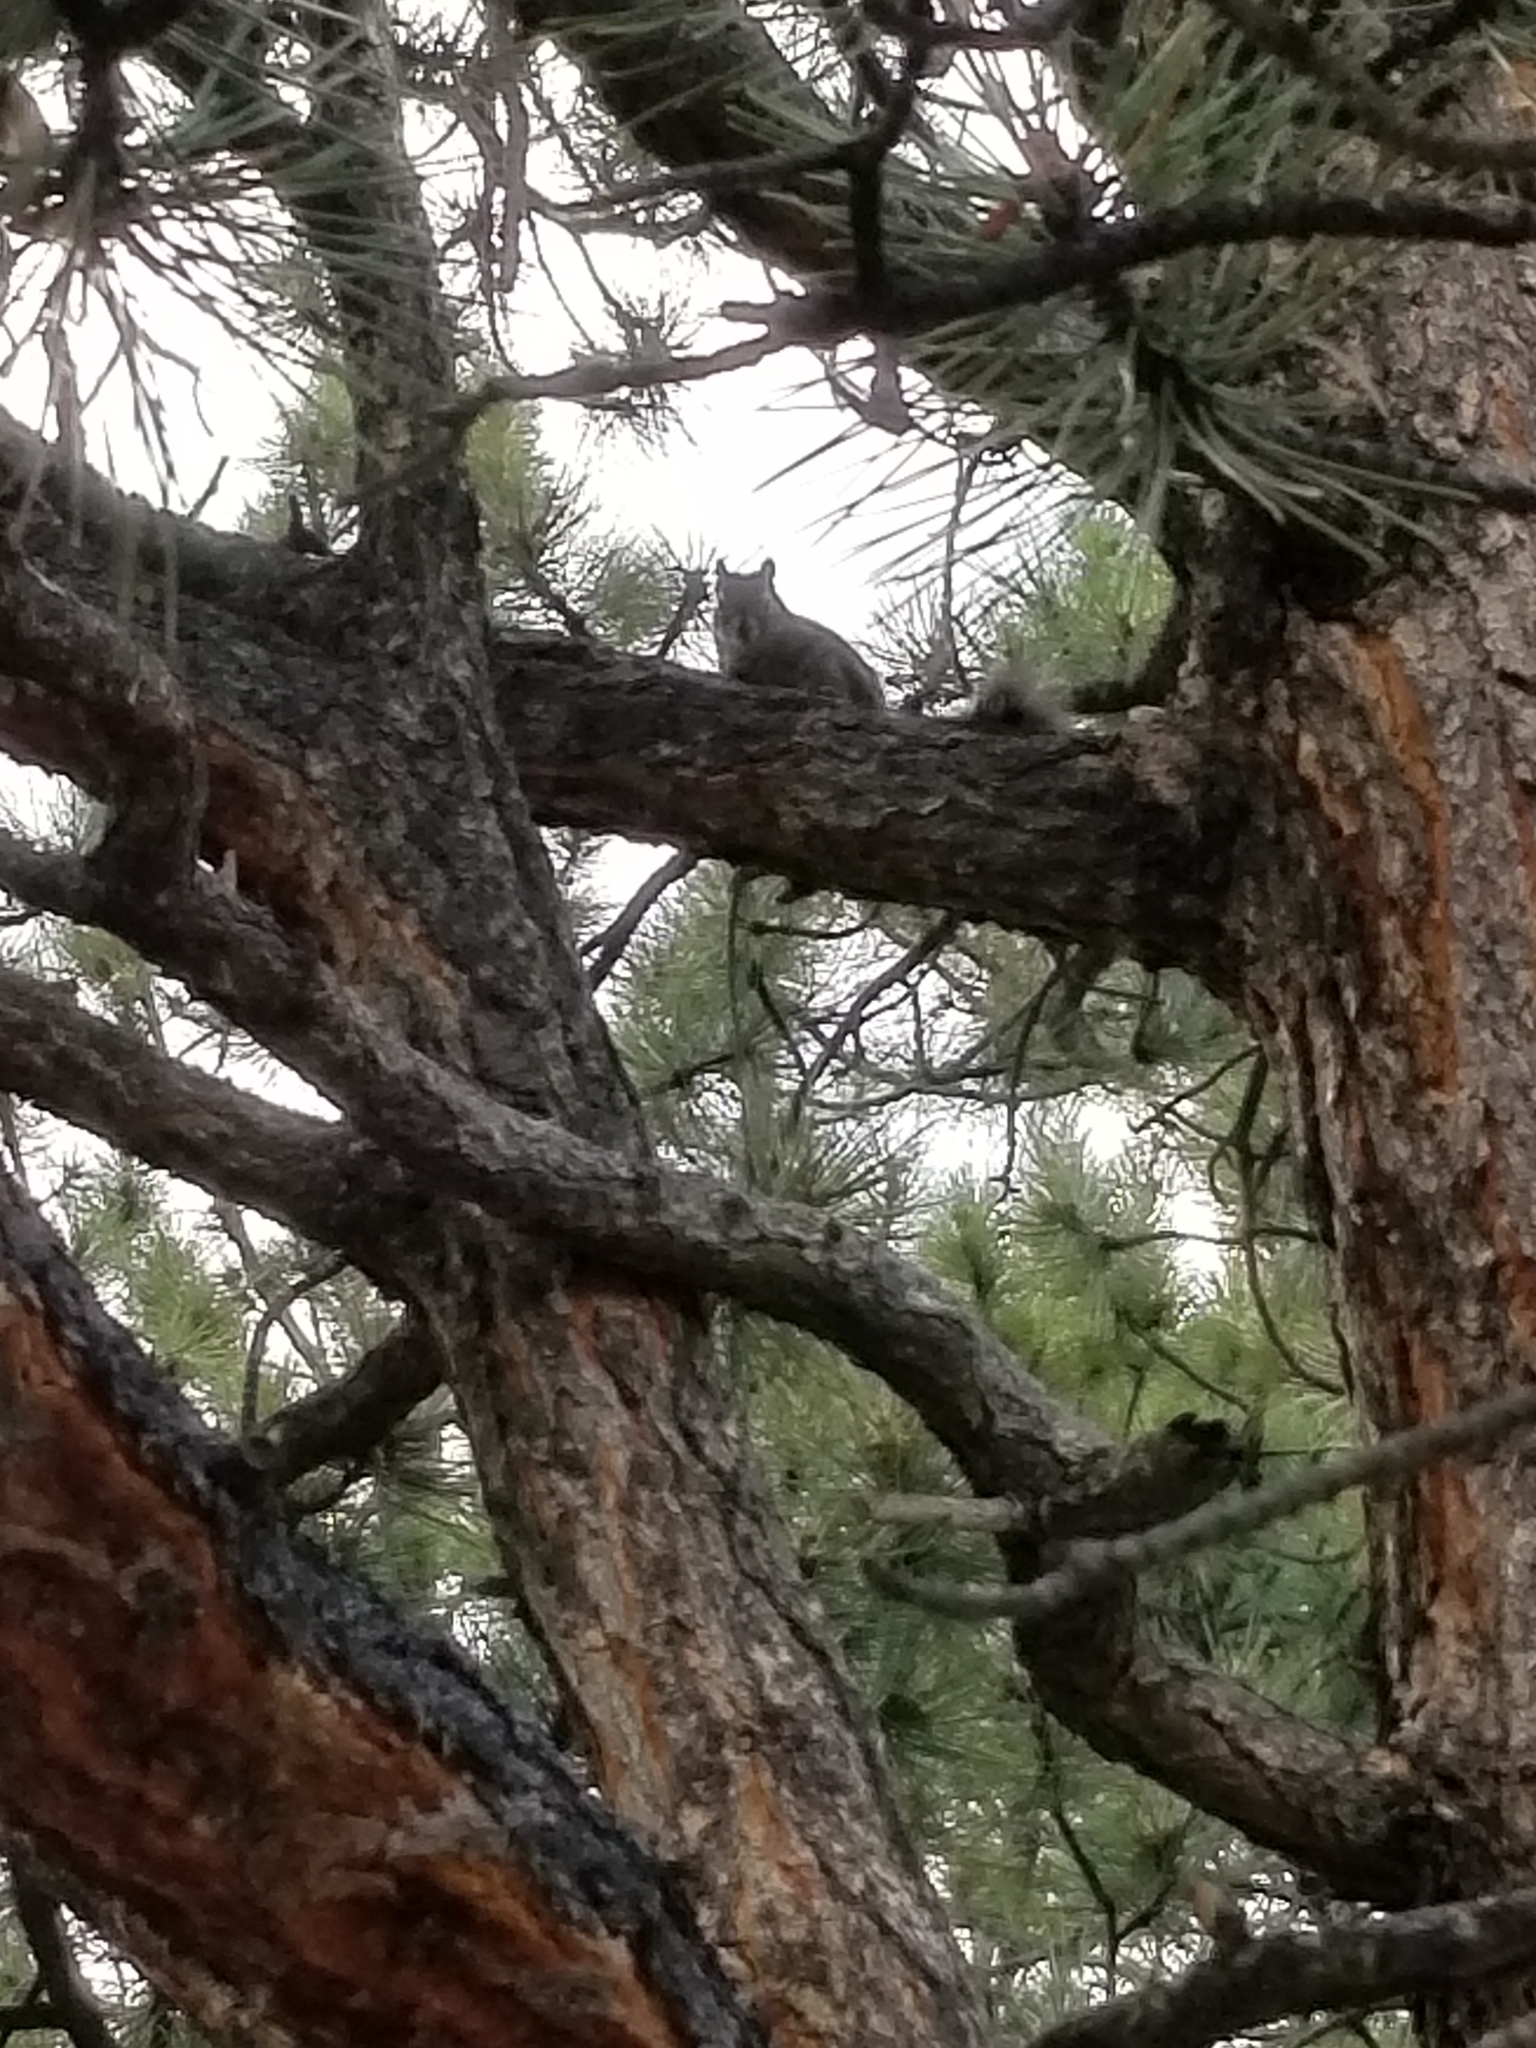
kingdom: Animalia
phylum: Chordata
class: Mammalia
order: Rodentia
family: Sciuridae
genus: Tamiasciurus
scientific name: Tamiasciurus hudsonicus
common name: Red squirrel
